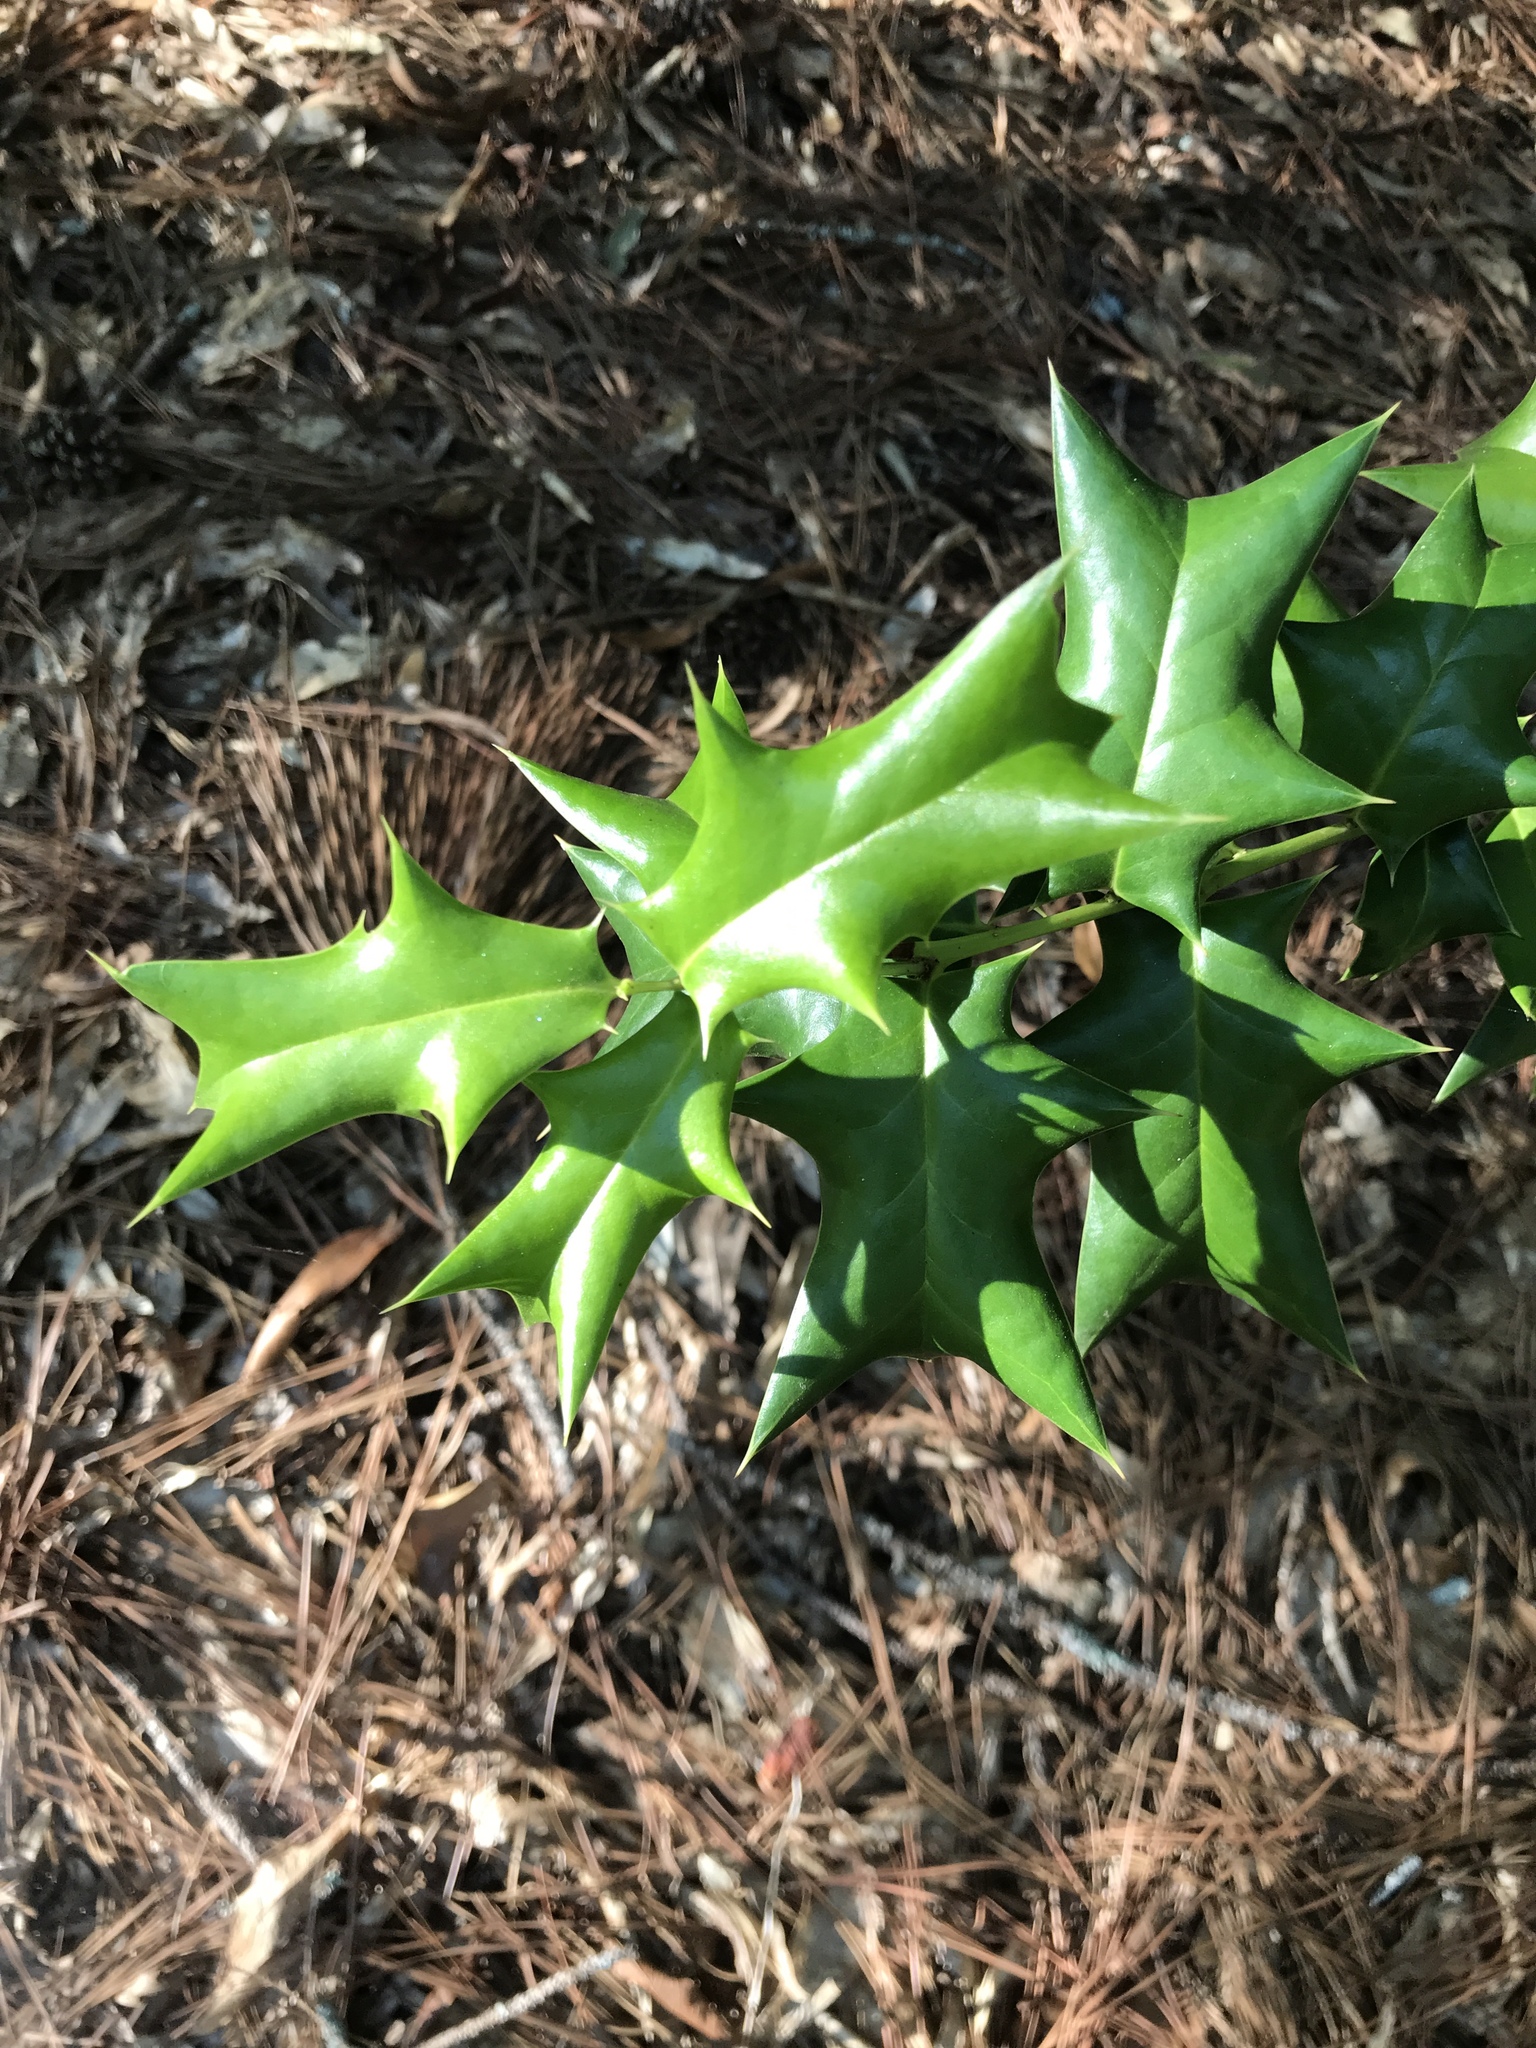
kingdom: Plantae
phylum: Tracheophyta
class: Magnoliopsida
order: Aquifoliales
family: Aquifoliaceae
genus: Ilex
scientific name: Ilex cornuta
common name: Chinese holly
